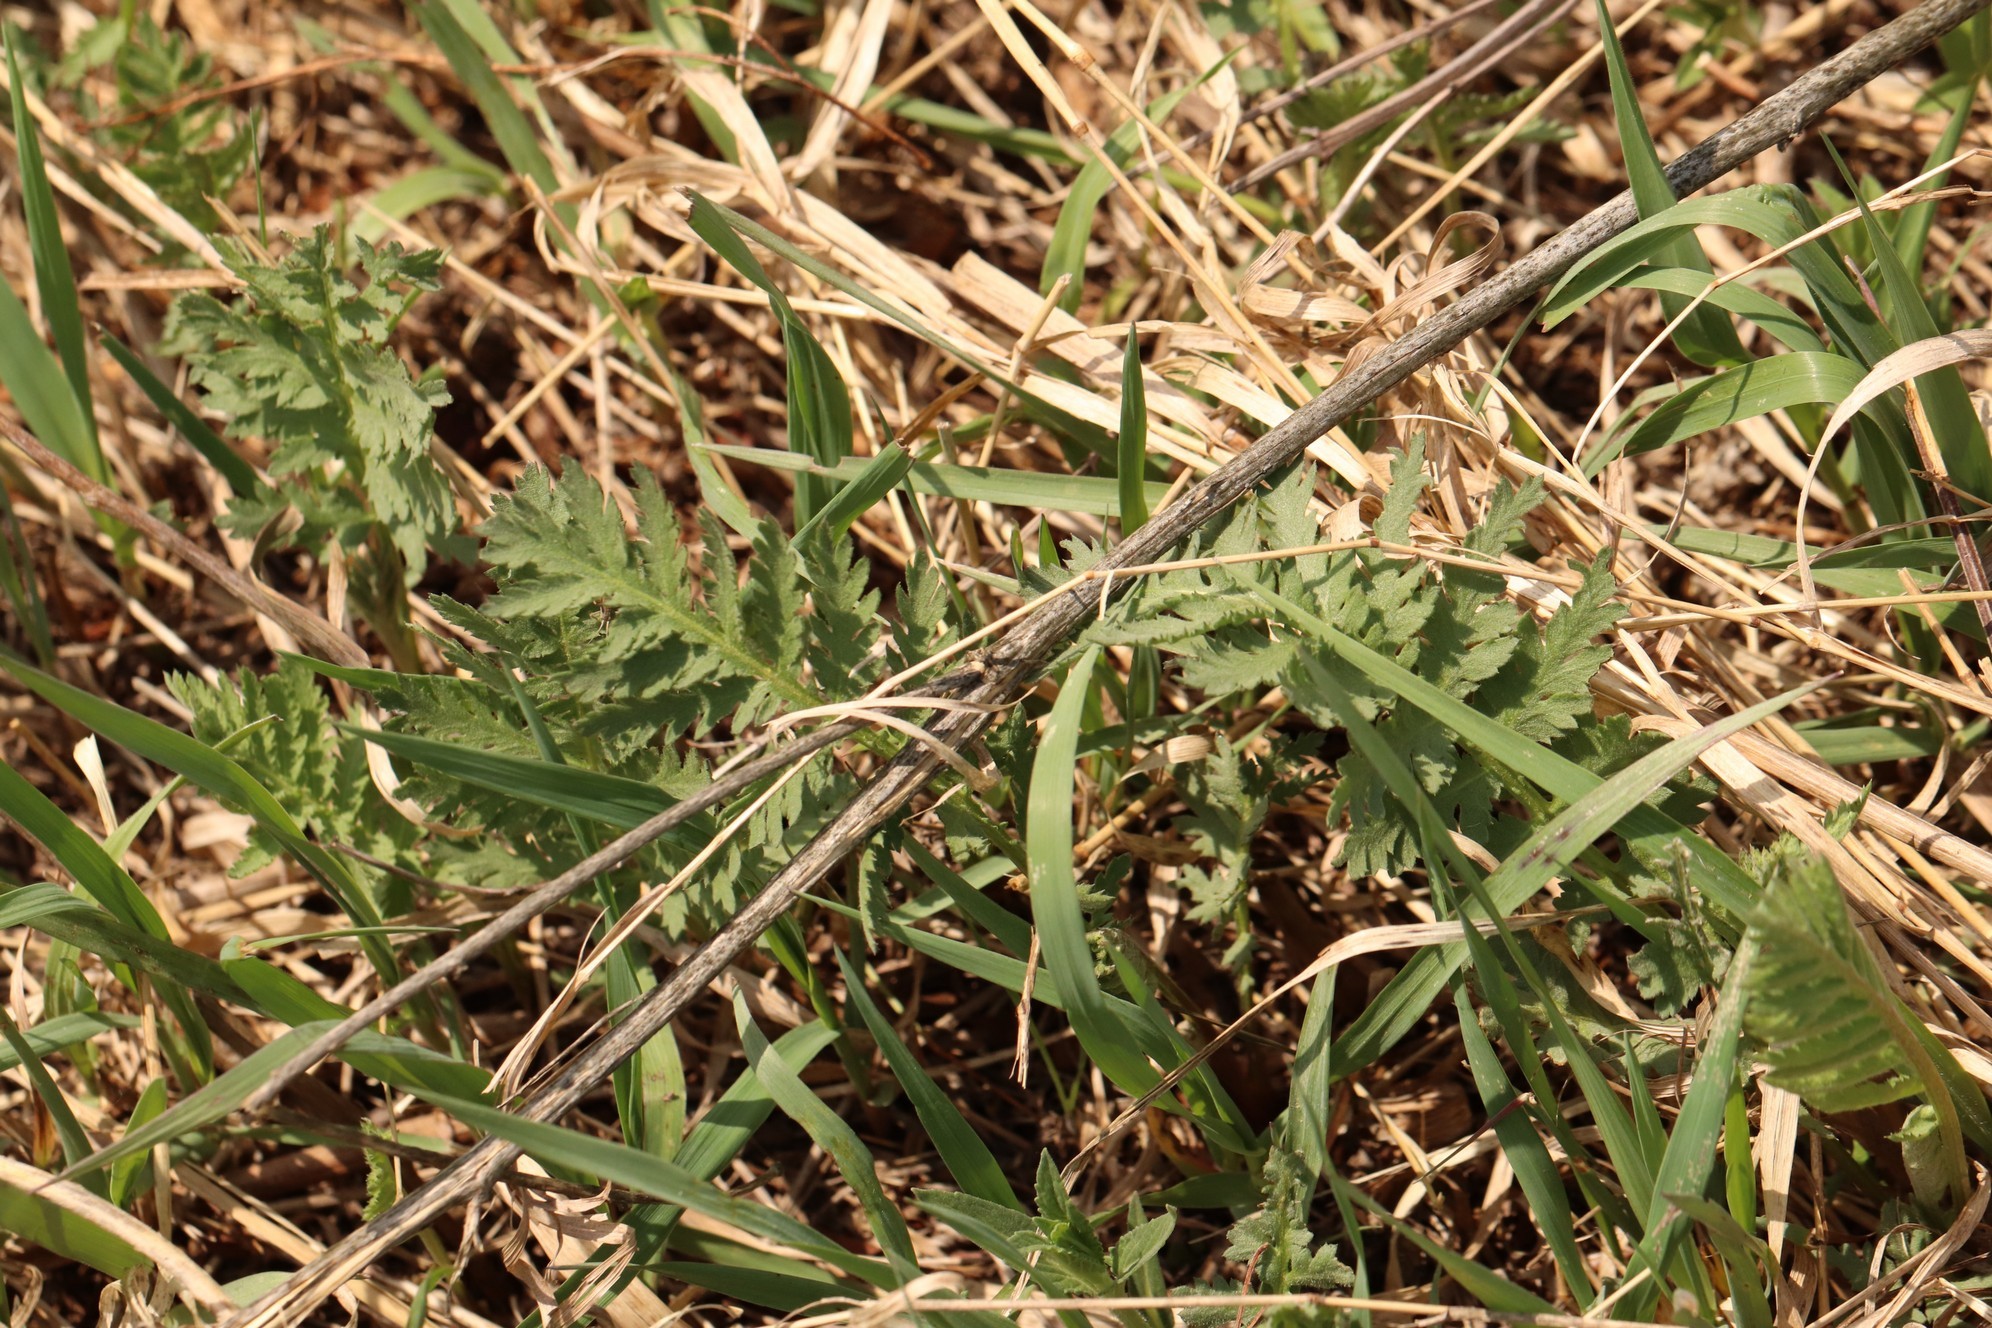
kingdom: Plantae
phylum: Tracheophyta
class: Magnoliopsida
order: Asterales
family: Asteraceae
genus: Tanacetum
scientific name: Tanacetum vulgare
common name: Common tansy
